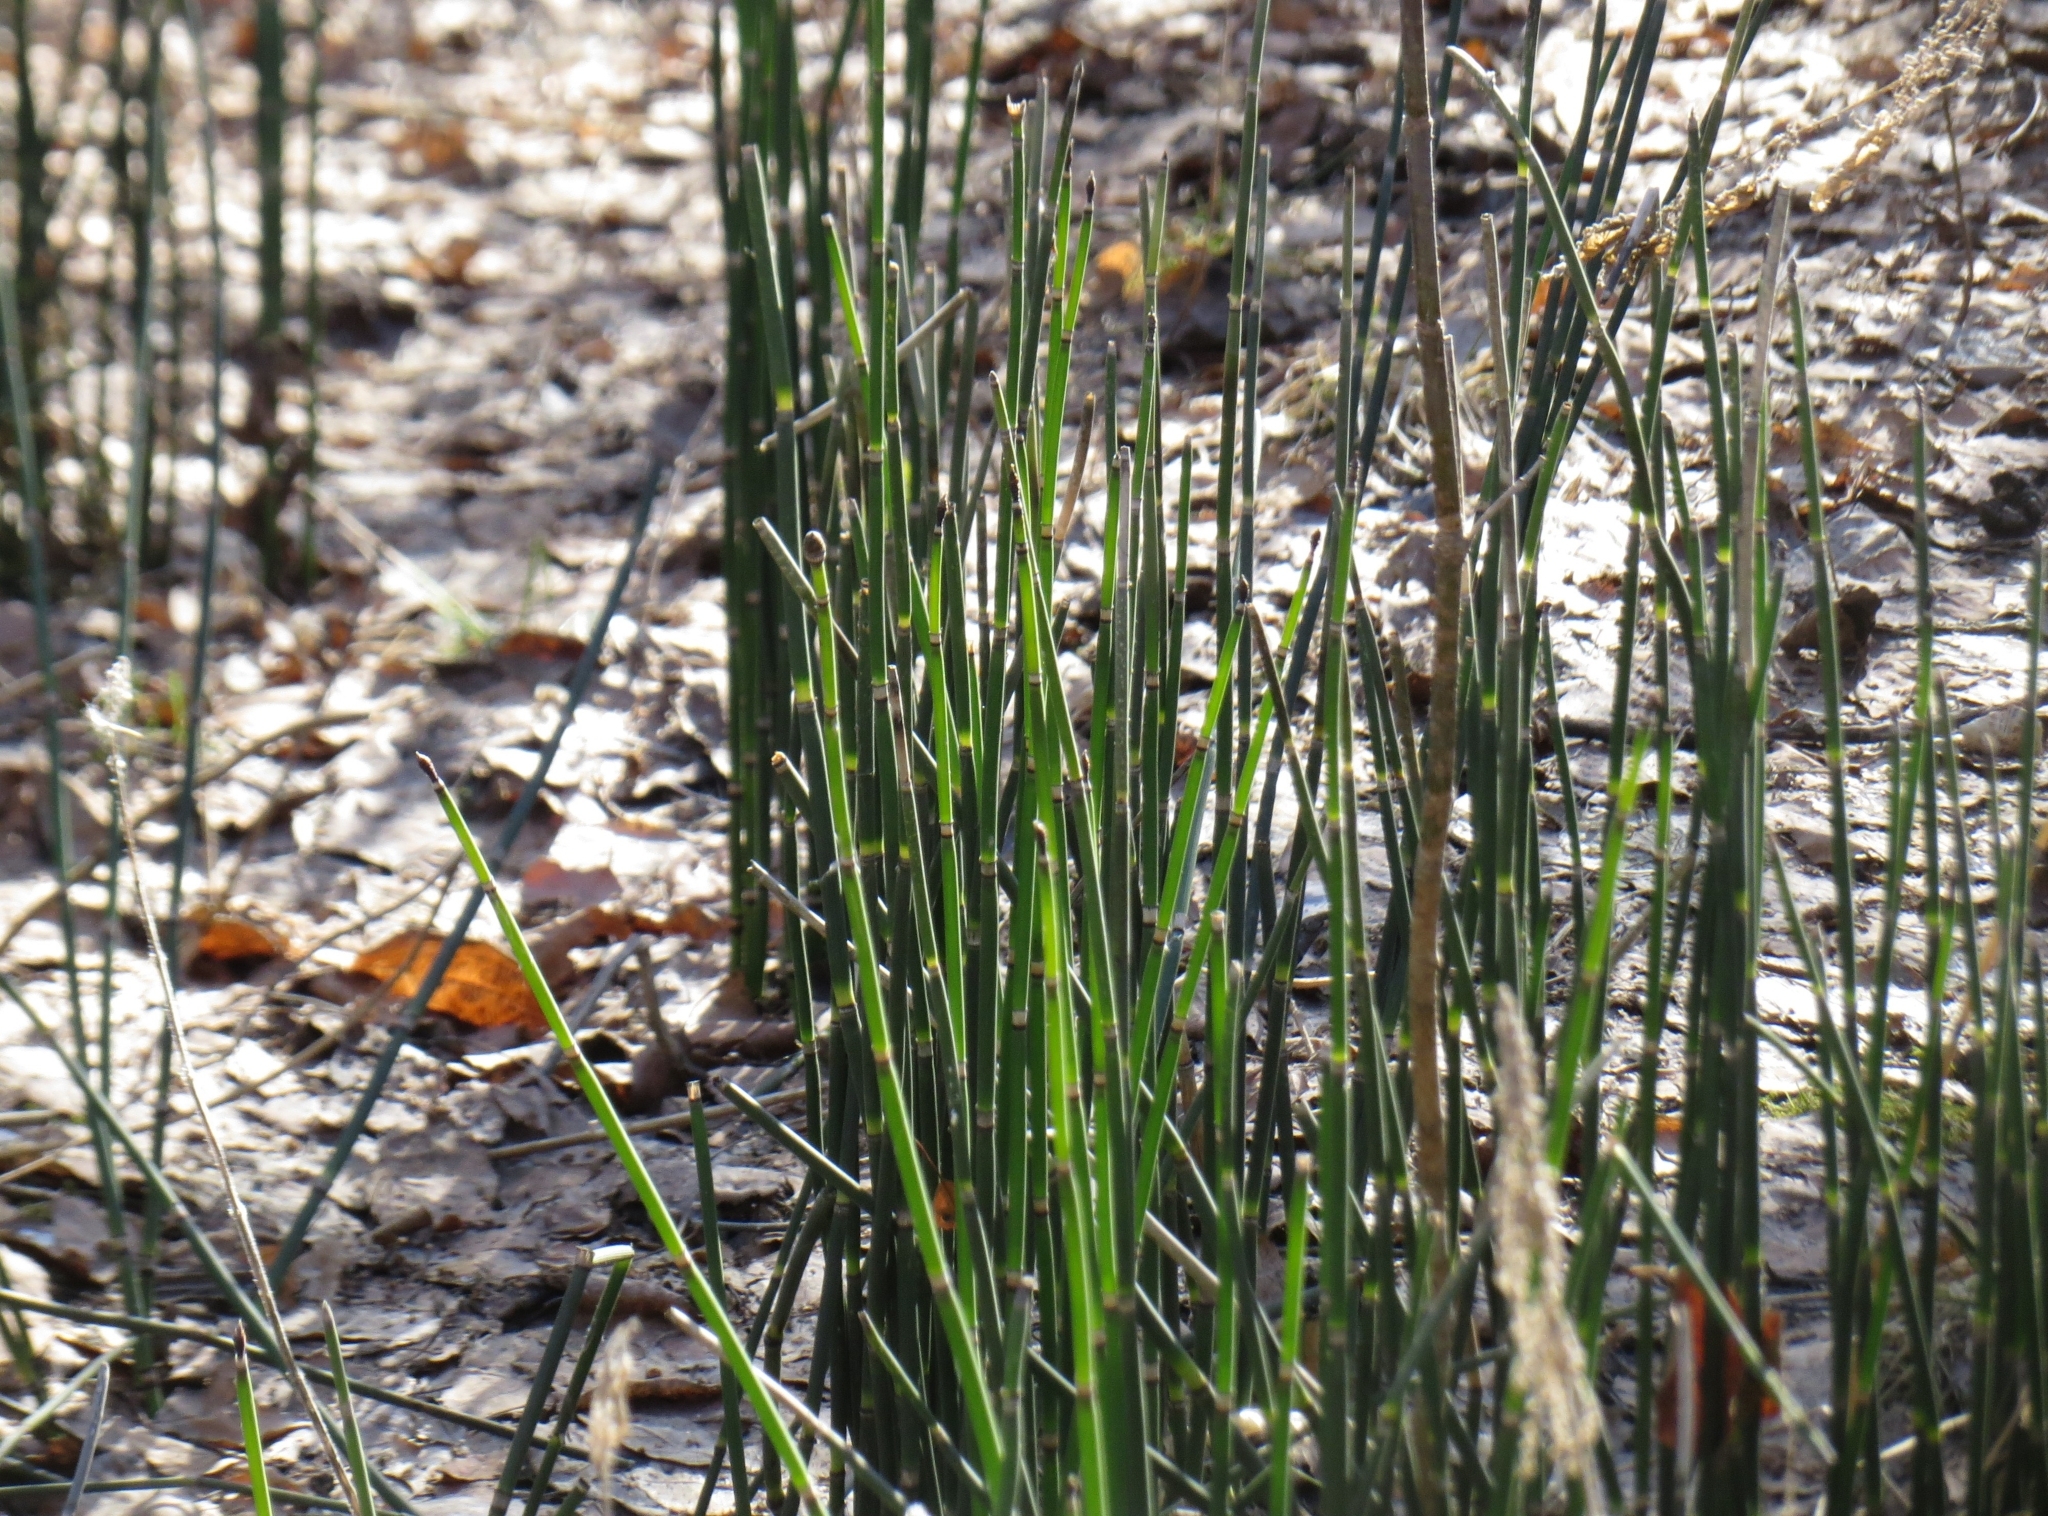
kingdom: Plantae
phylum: Tracheophyta
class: Polypodiopsida
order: Equisetales
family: Equisetaceae
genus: Equisetum
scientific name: Equisetum hyemale
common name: Rough horsetail
